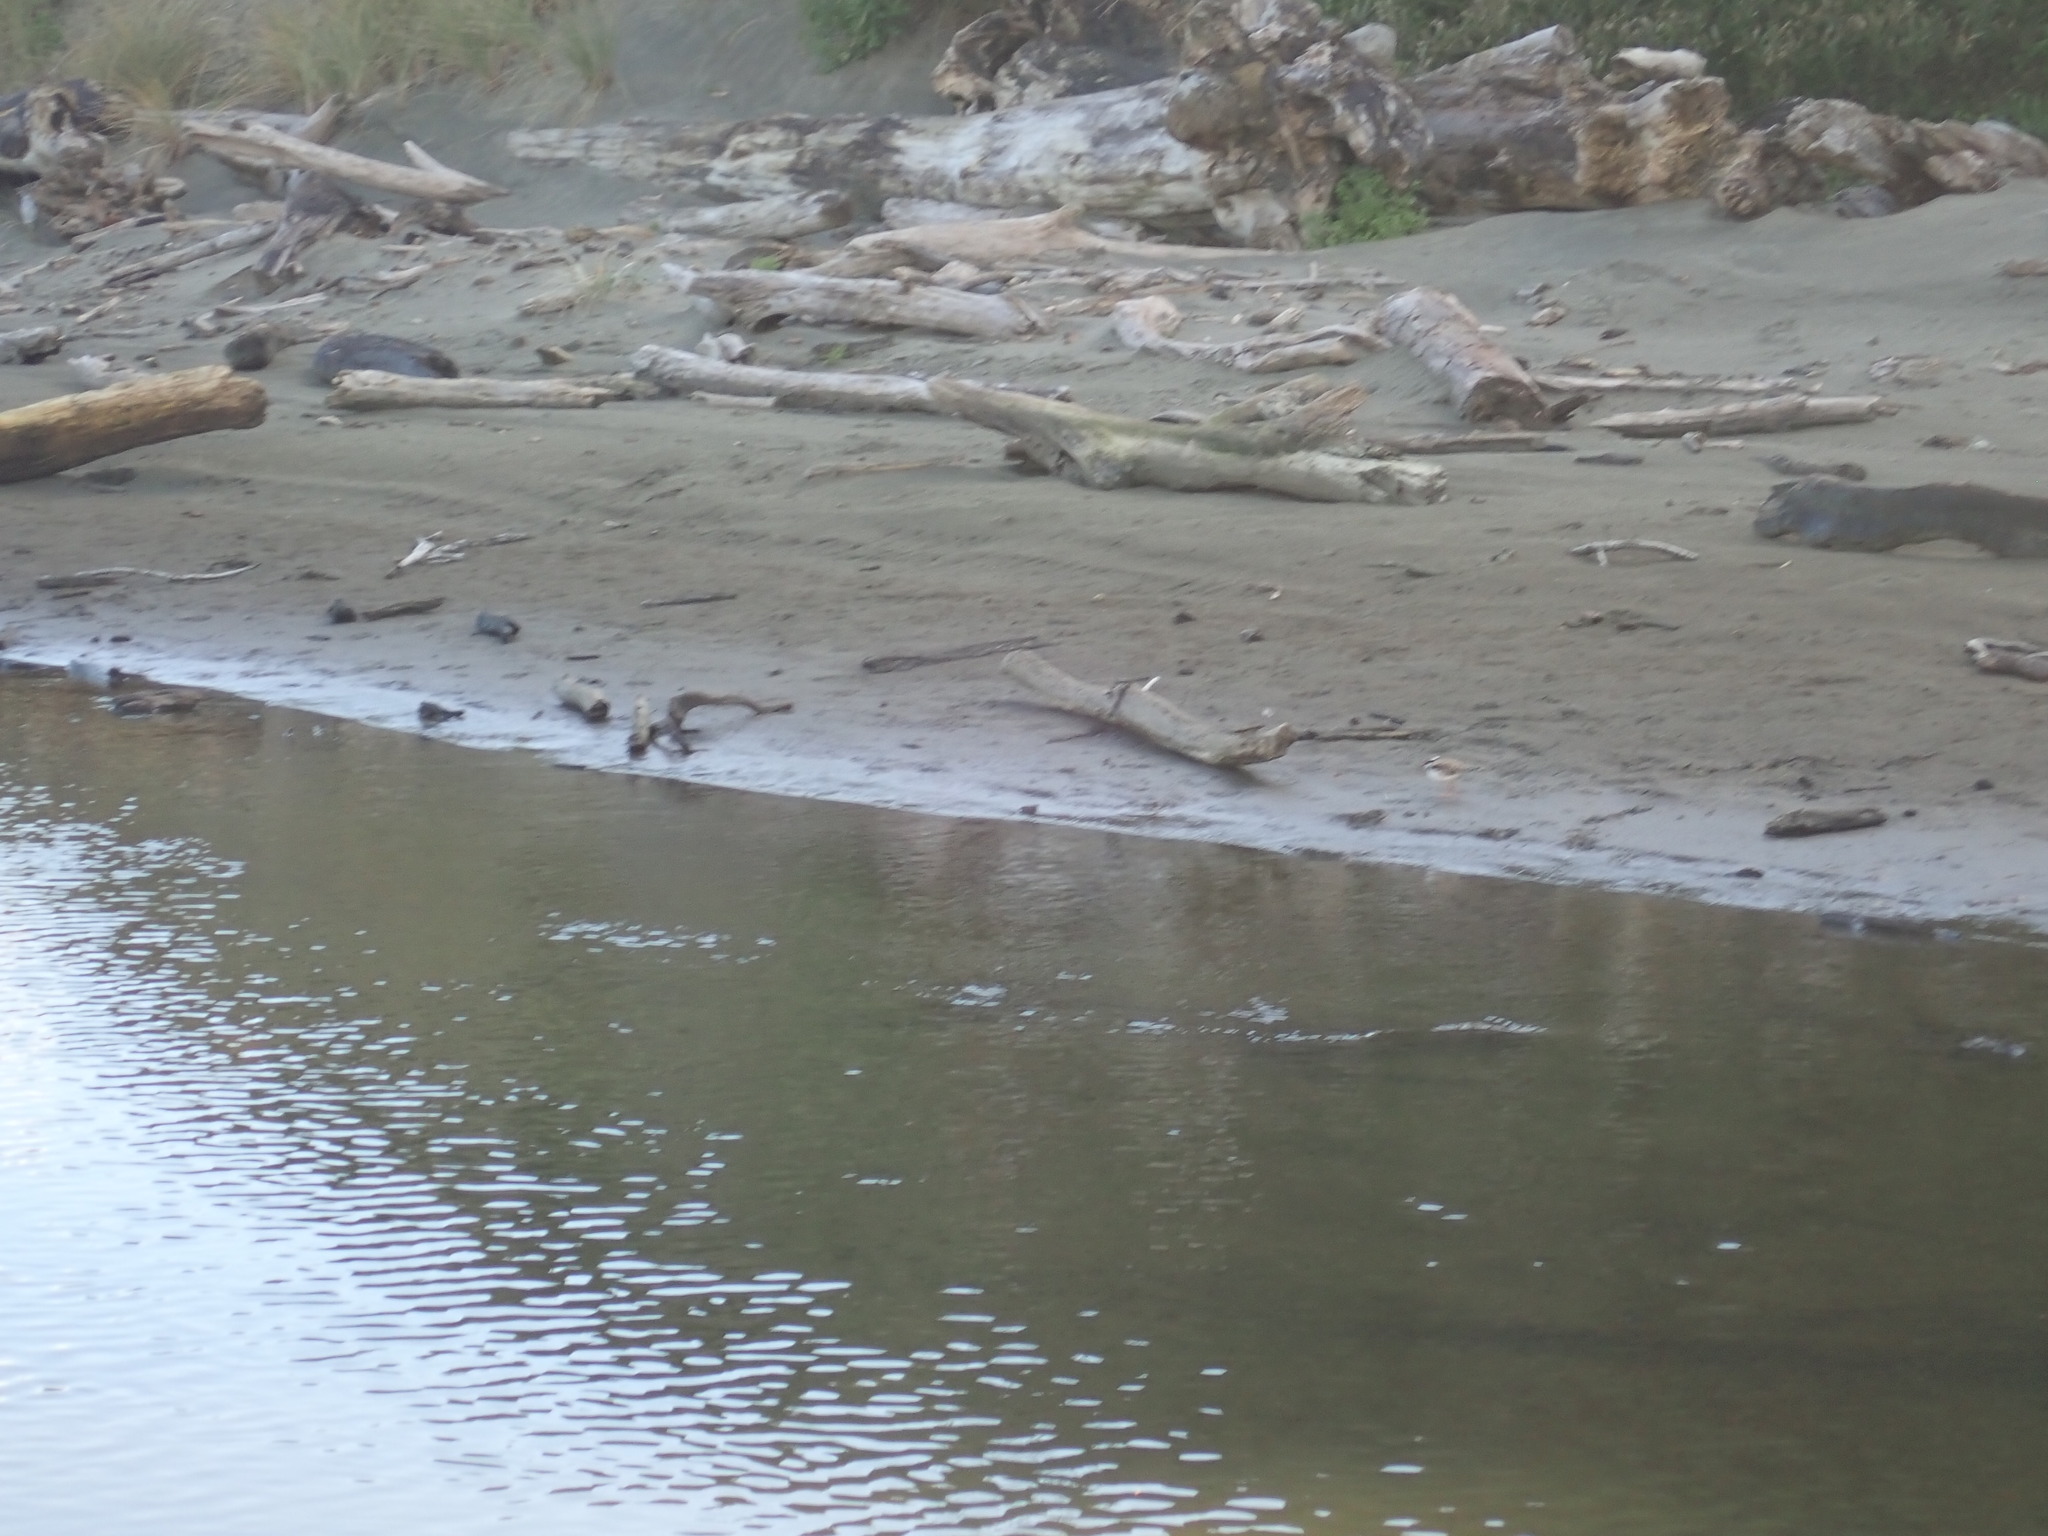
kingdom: Animalia
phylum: Chordata
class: Aves
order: Charadriiformes
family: Charadriidae
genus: Elseyornis
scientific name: Elseyornis melanops
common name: Black-fronted dotterel
